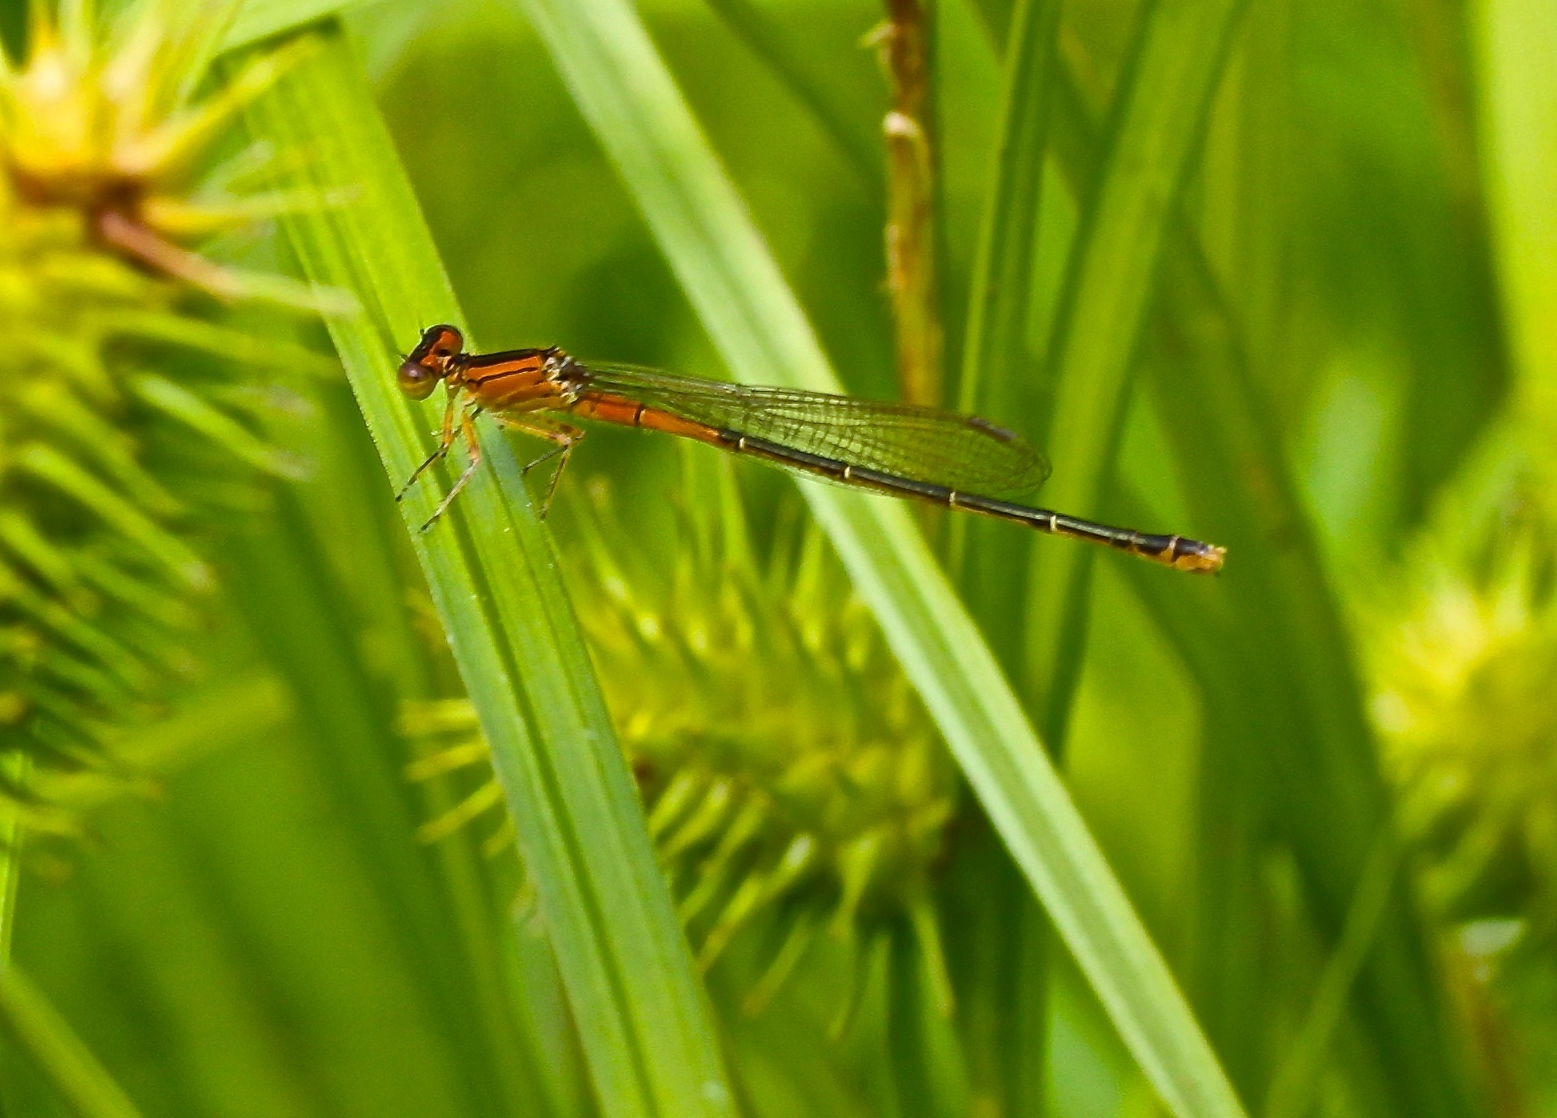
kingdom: Animalia
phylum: Arthropoda
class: Insecta
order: Odonata
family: Coenagrionidae
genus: Ischnura
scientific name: Ischnura verticalis
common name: Eastern forktail
